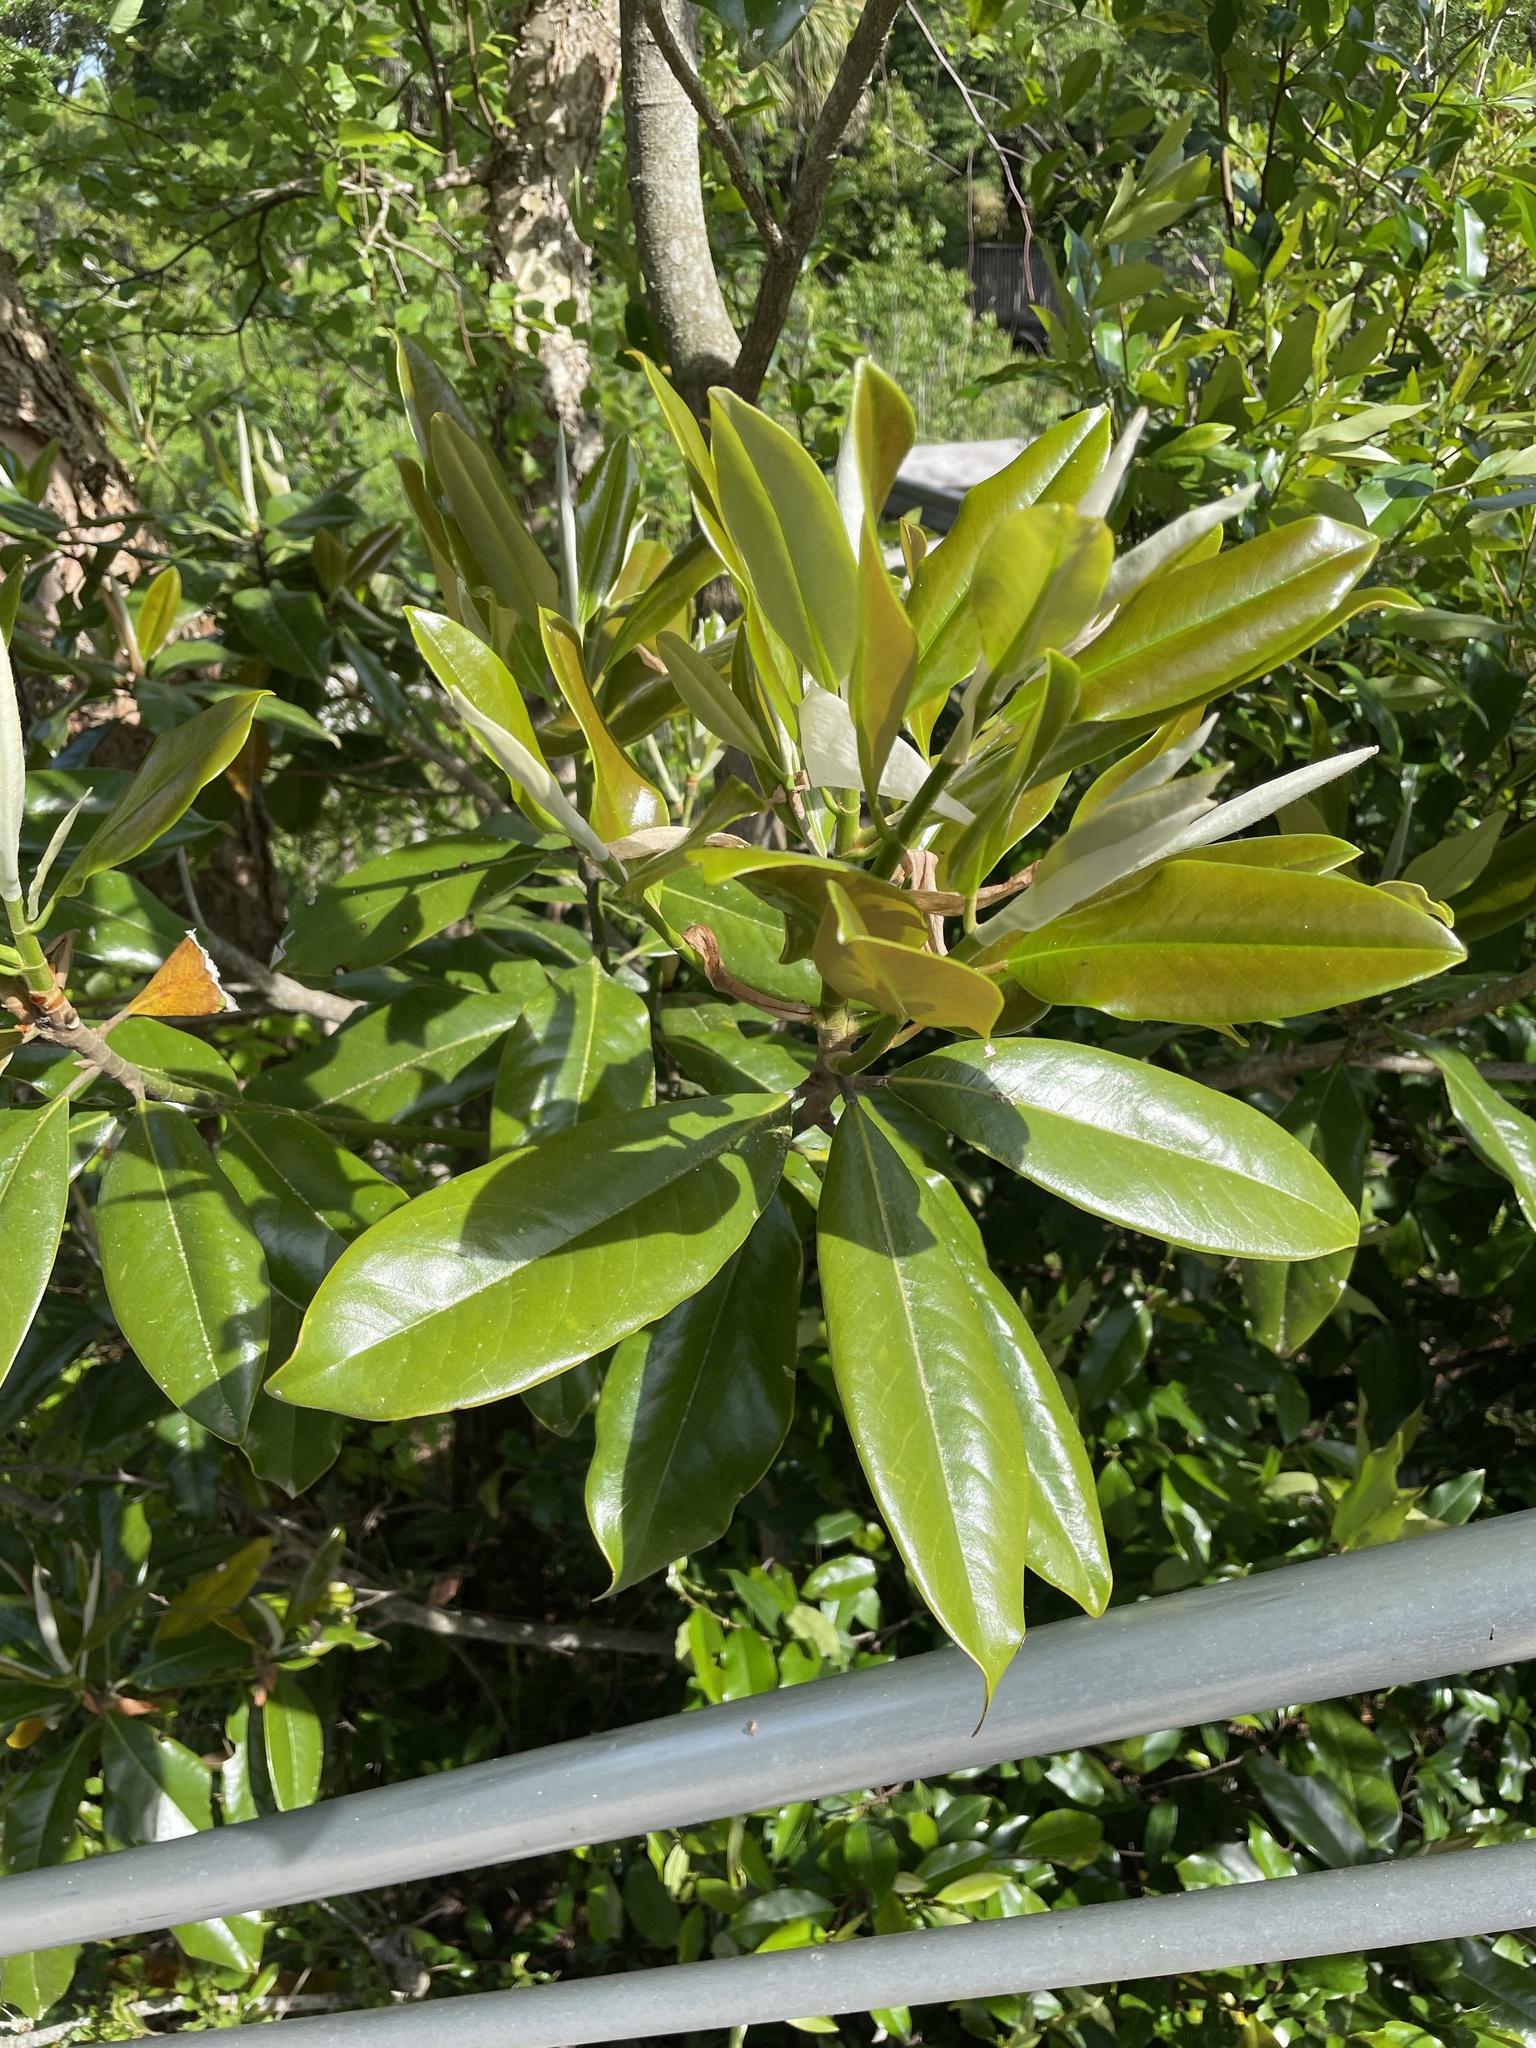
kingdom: Plantae
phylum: Tracheophyta
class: Magnoliopsida
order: Magnoliales
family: Magnoliaceae
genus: Magnolia
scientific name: Magnolia grandiflora
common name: Southern magnolia
